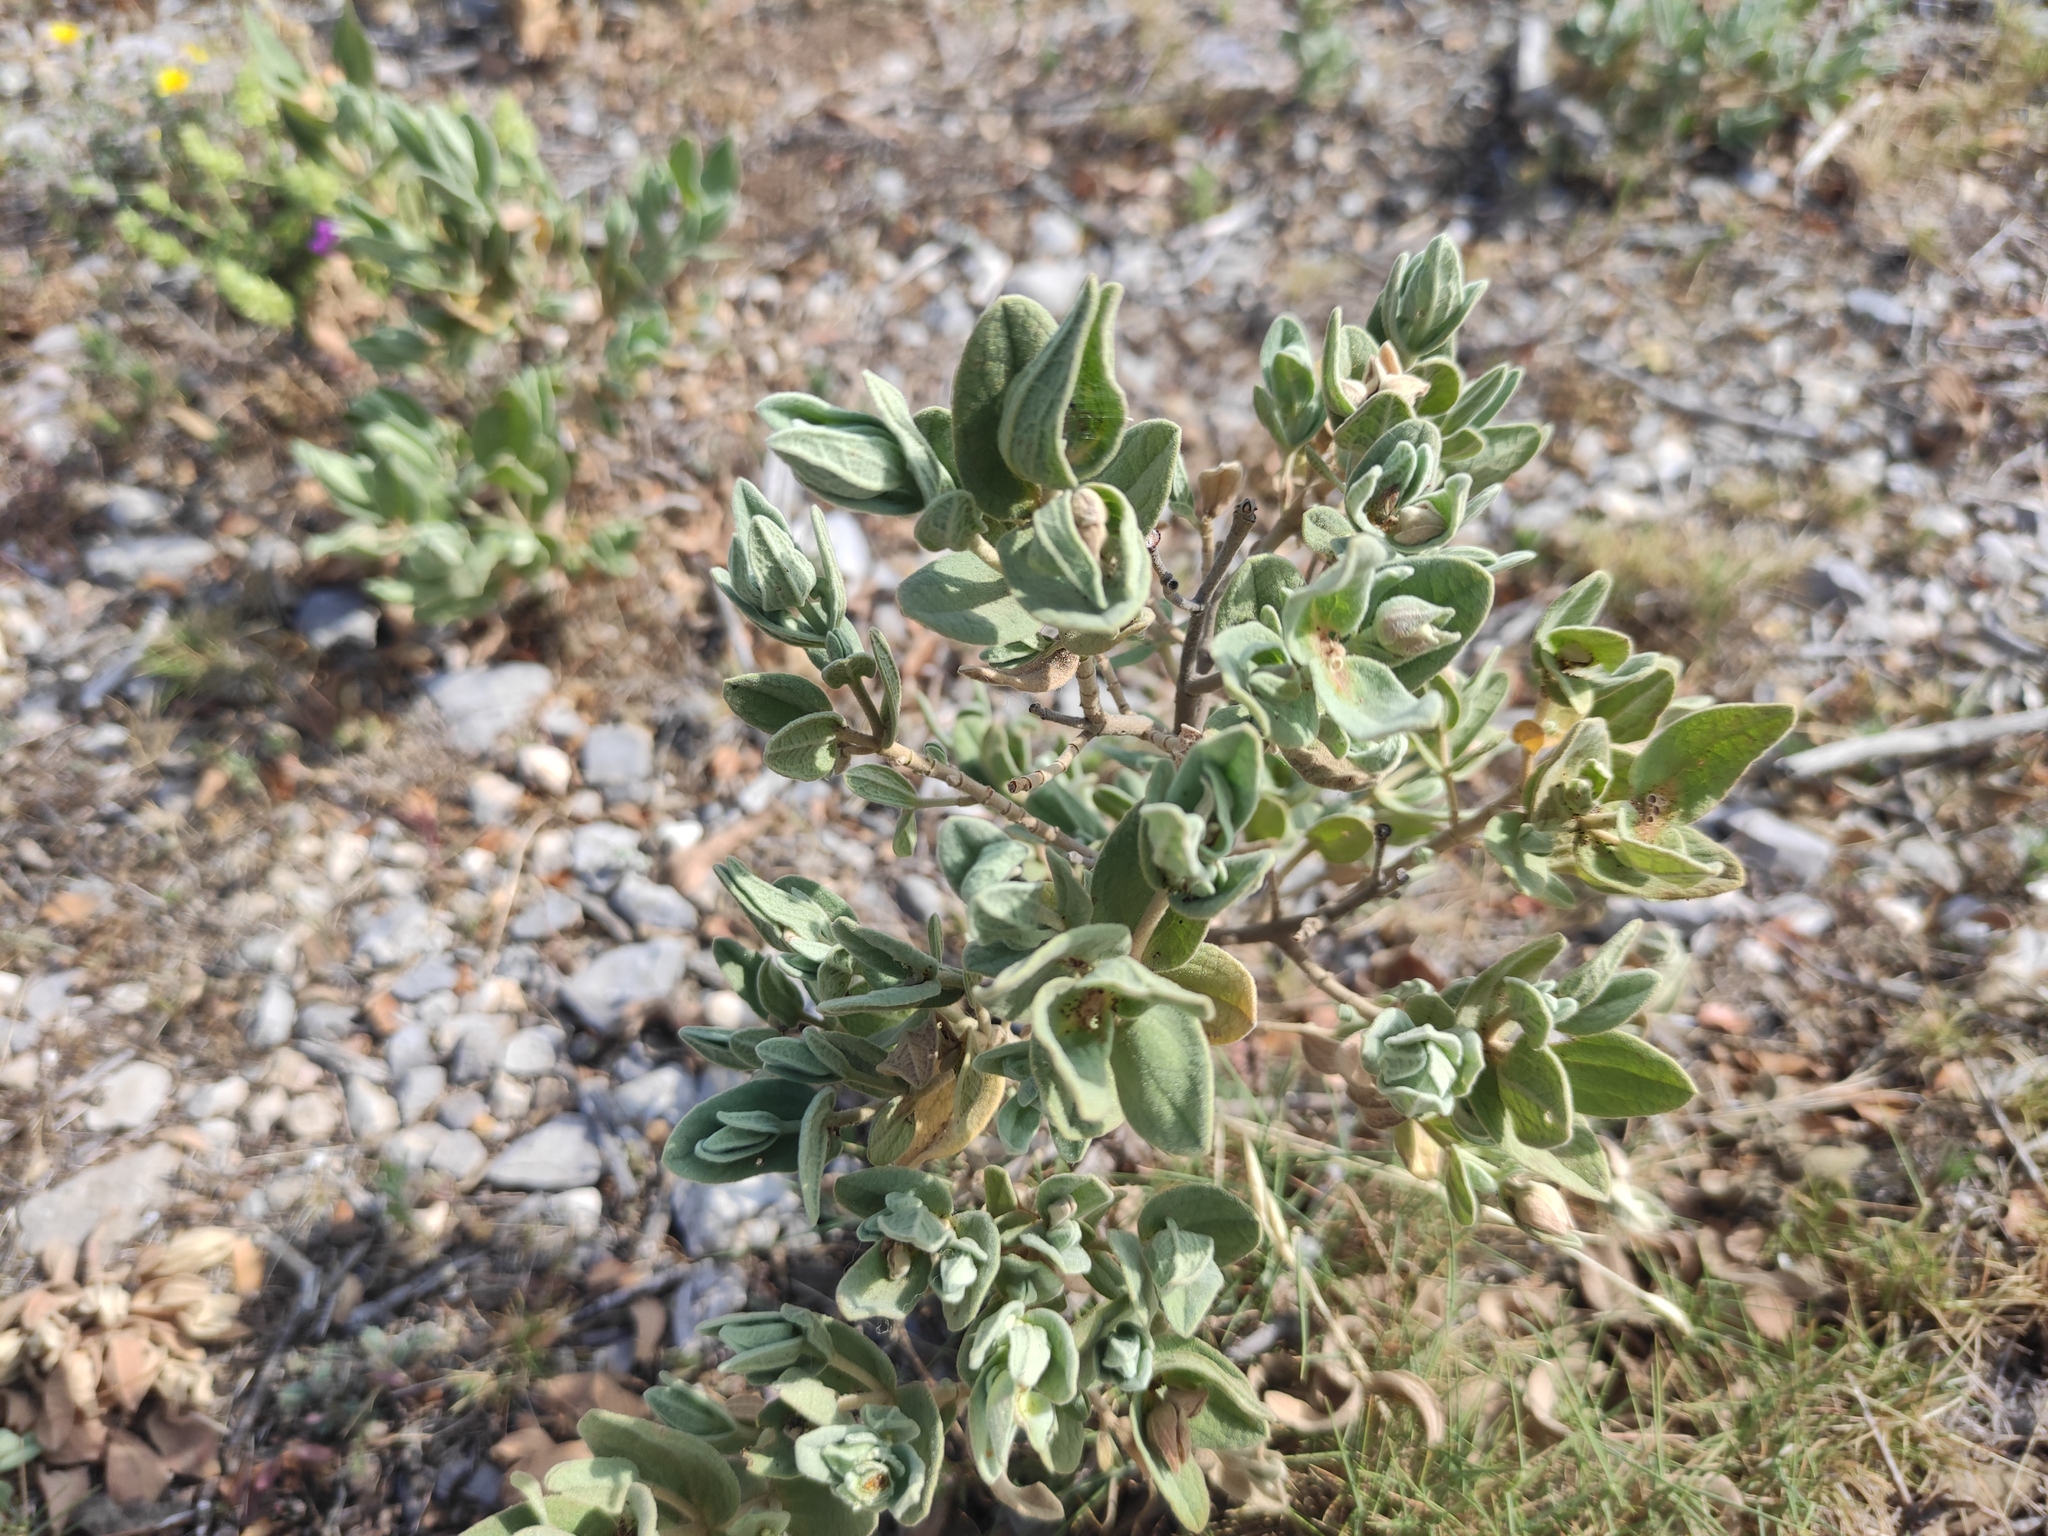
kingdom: Plantae
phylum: Tracheophyta
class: Magnoliopsida
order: Malvales
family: Cistaceae
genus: Cistus
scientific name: Cistus albidus
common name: White-leaf rock-rose
